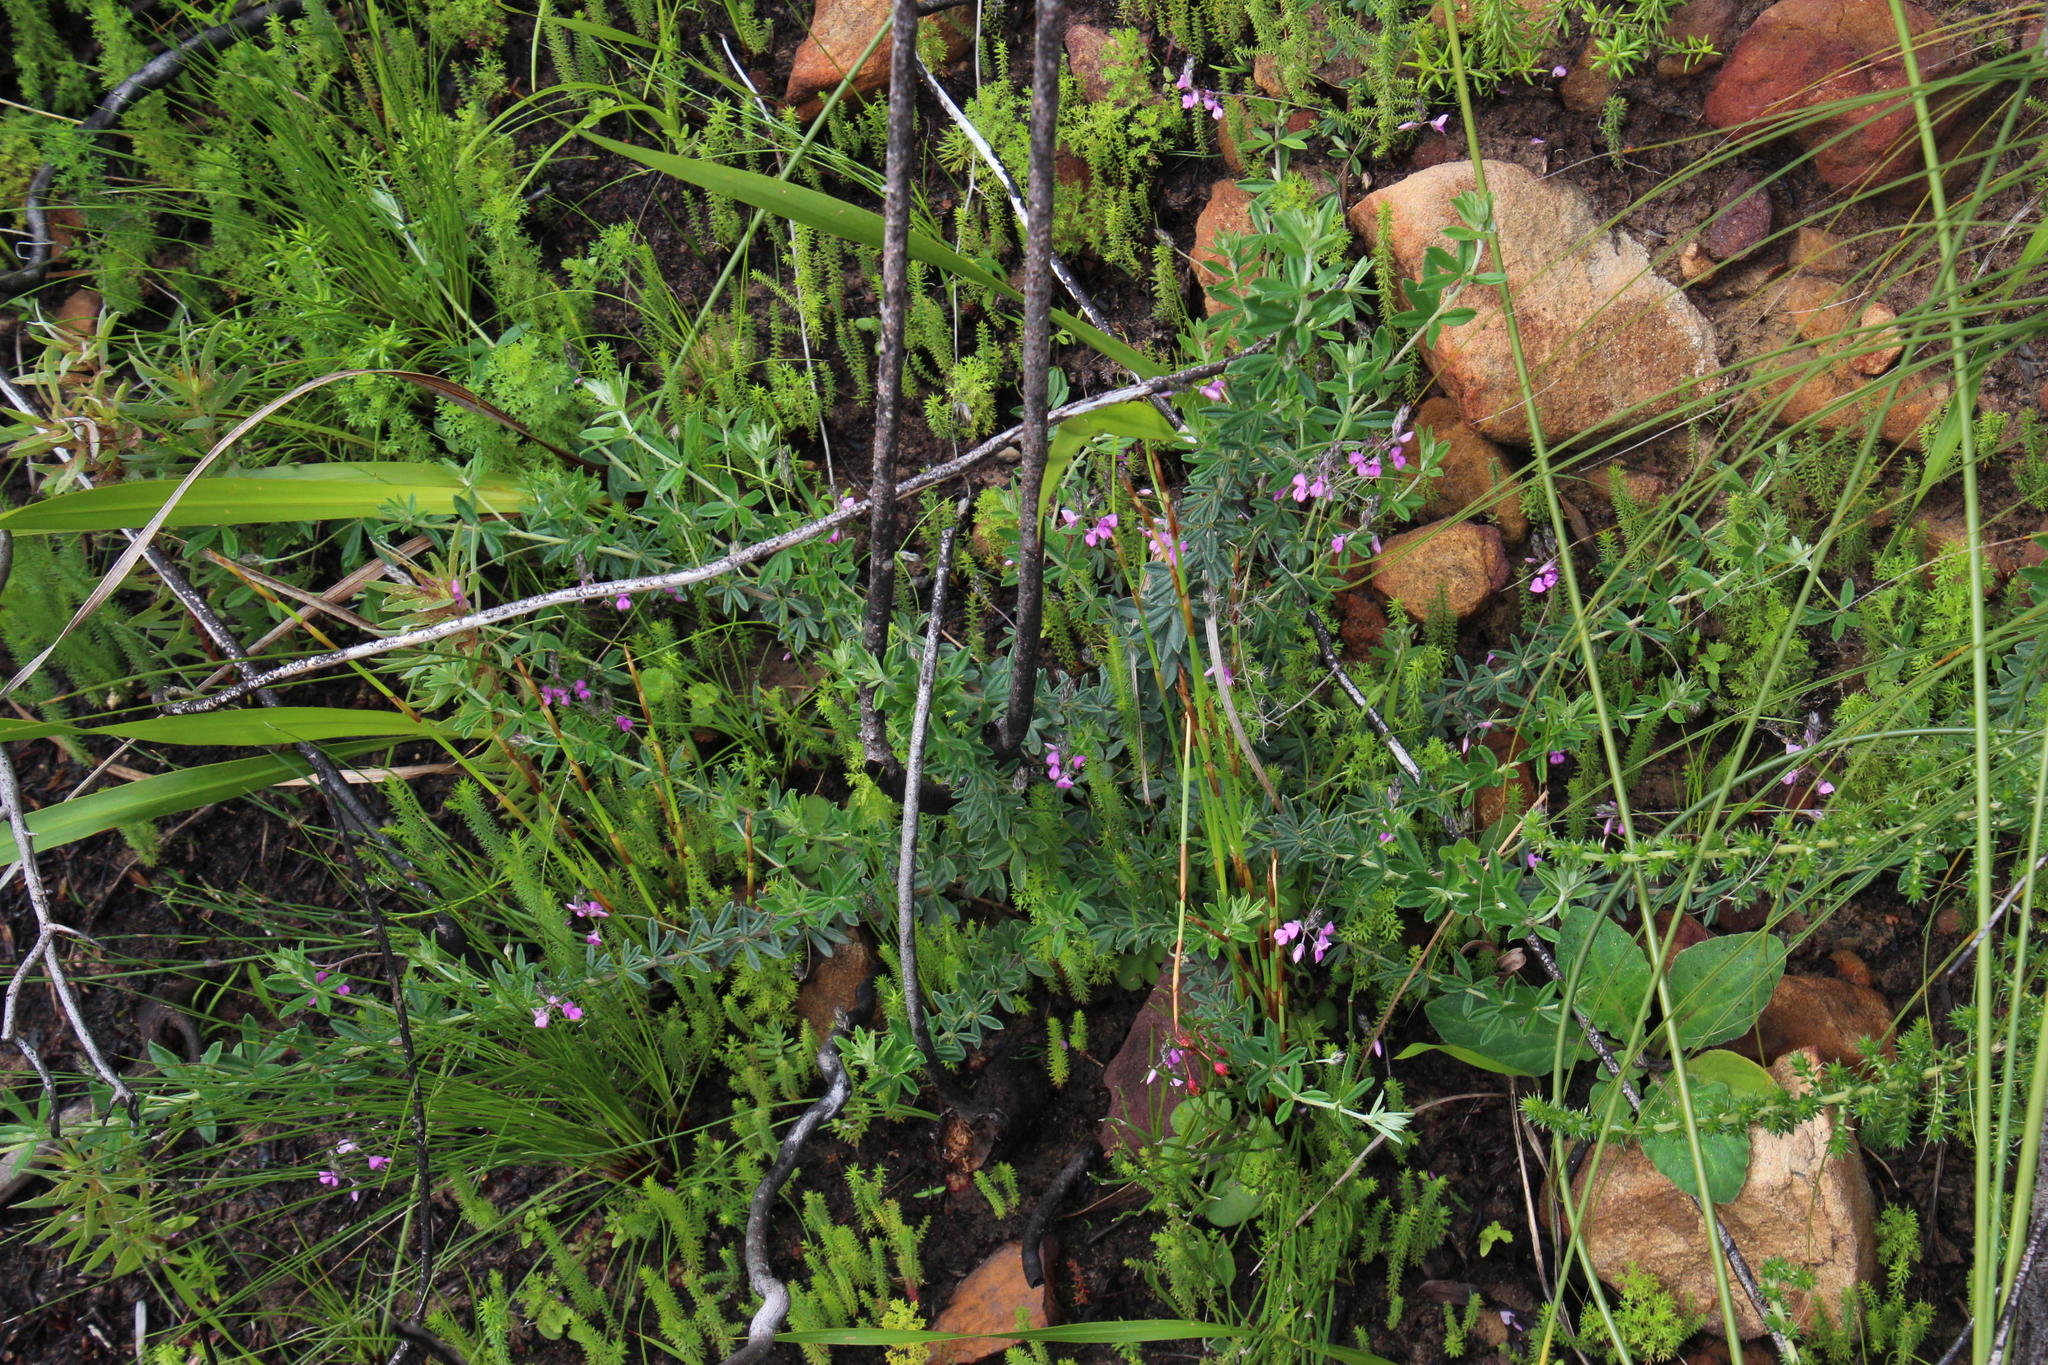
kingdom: Plantae
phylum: Tracheophyta
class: Magnoliopsida
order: Fabales
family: Fabaceae
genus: Indigofera
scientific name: Indigofera filiformis
